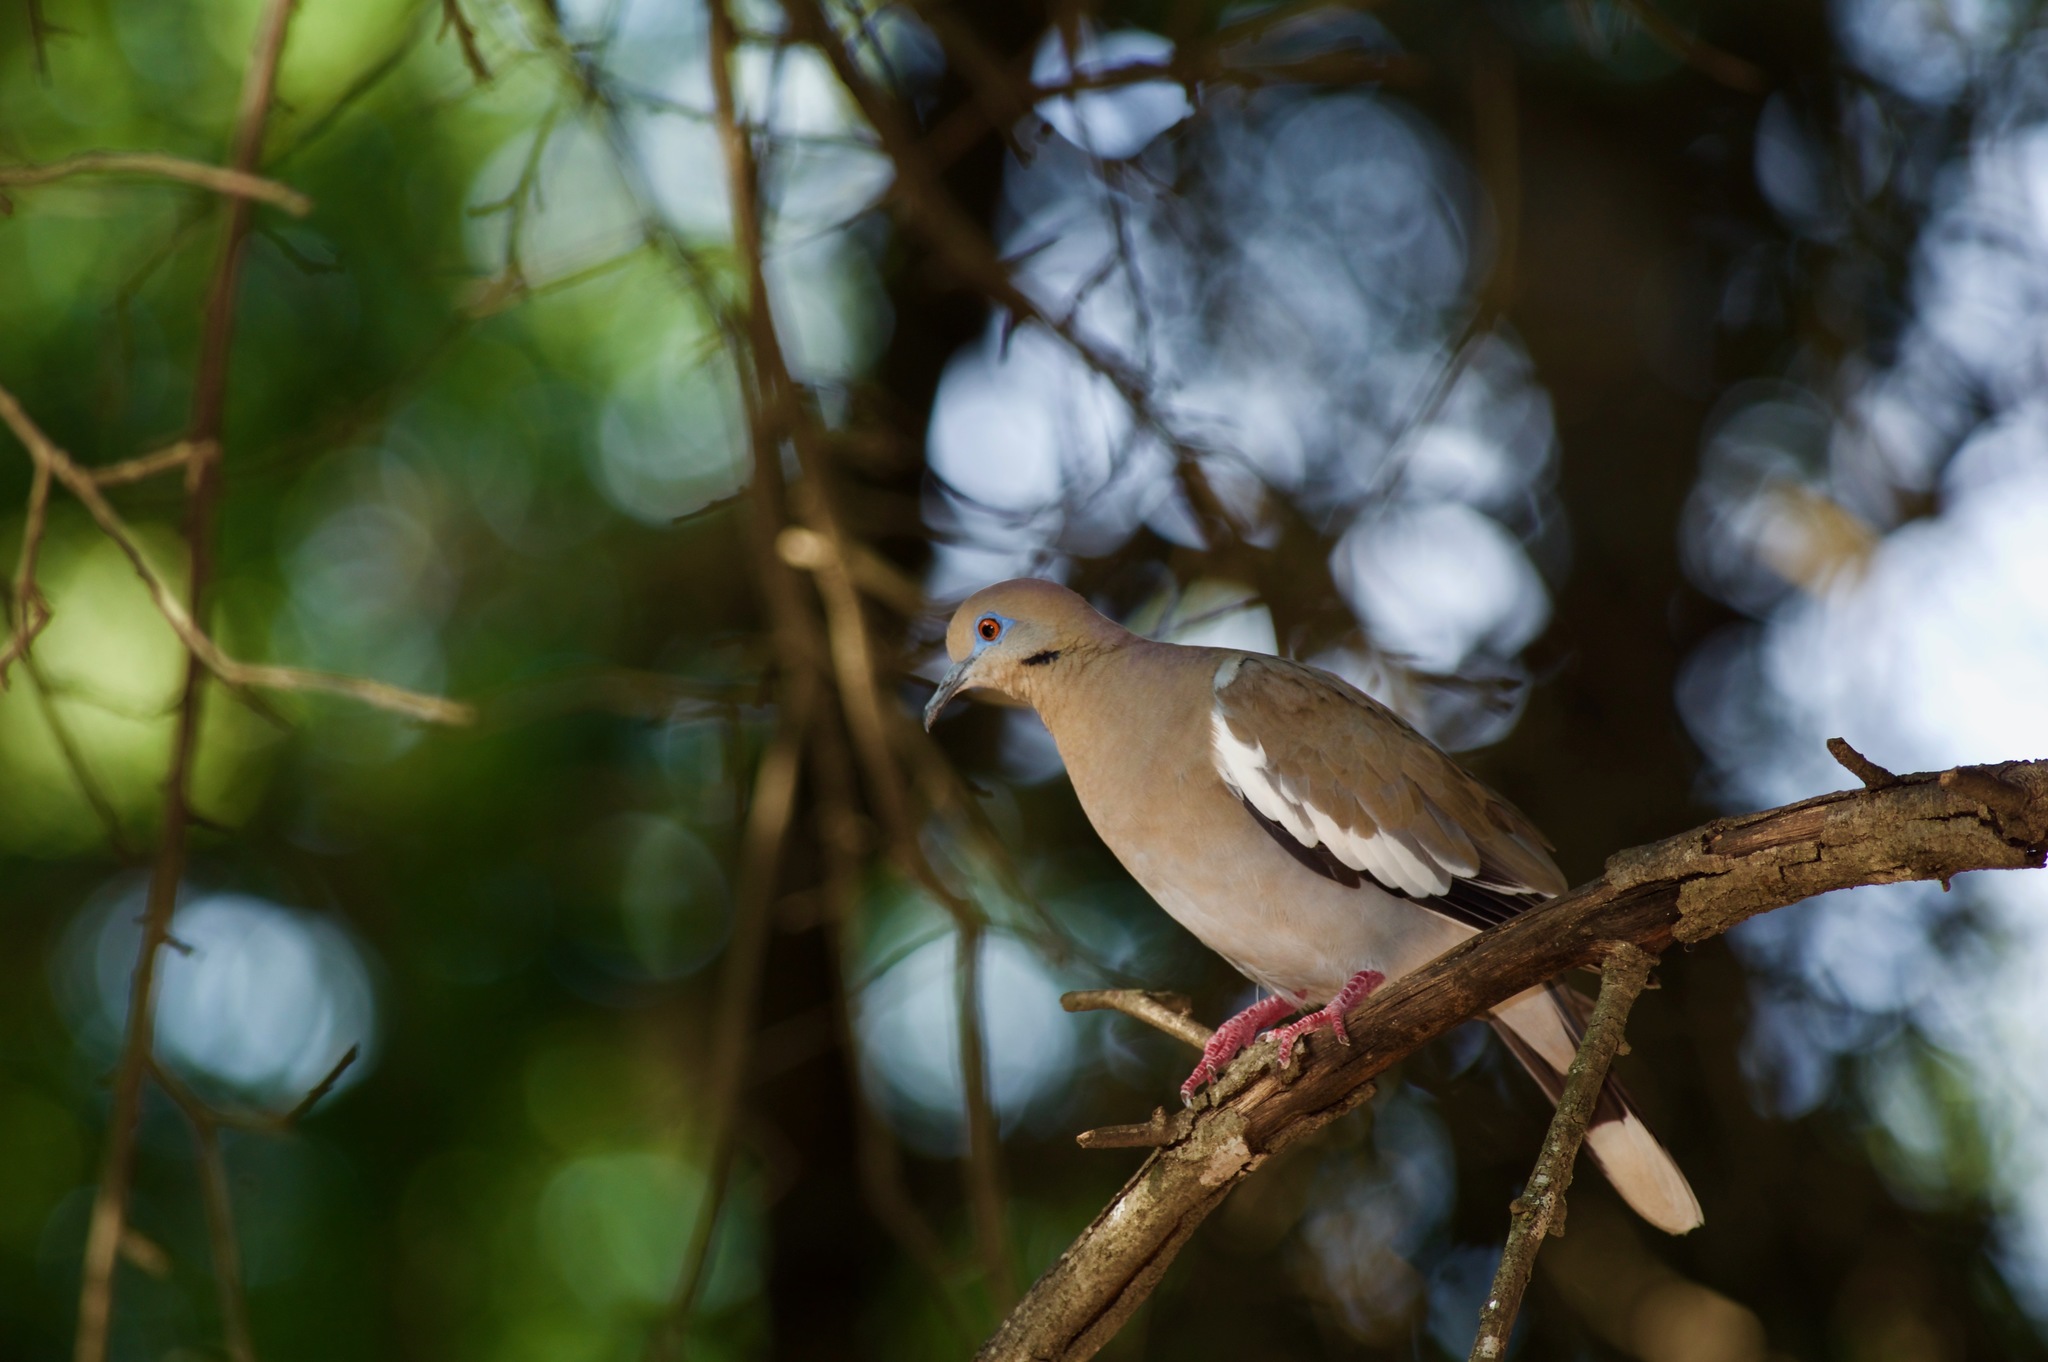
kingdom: Animalia
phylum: Chordata
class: Aves
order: Columbiformes
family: Columbidae
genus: Zenaida
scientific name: Zenaida asiatica
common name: White-winged dove
